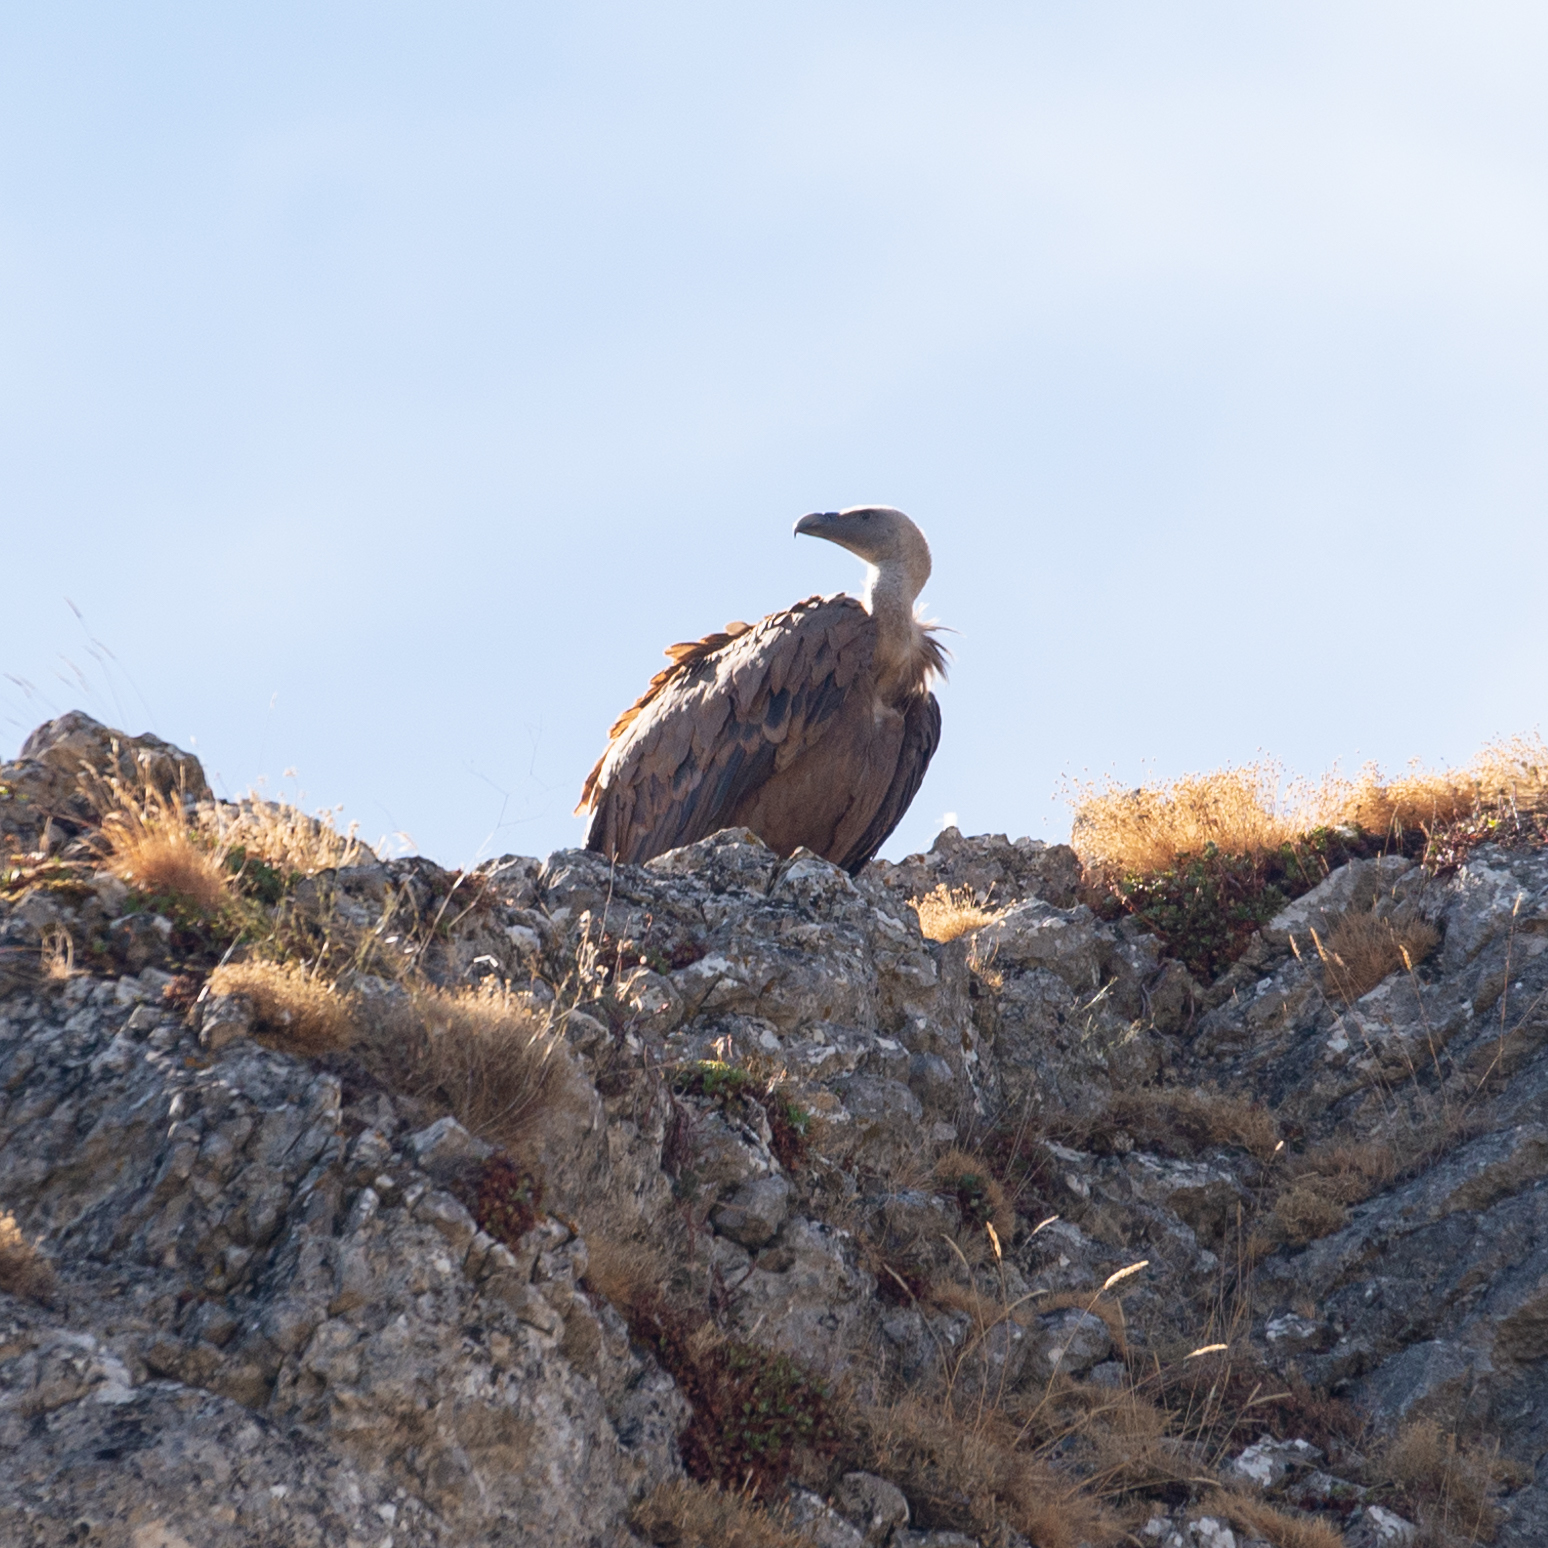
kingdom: Animalia
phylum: Chordata
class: Aves
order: Accipitriformes
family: Accipitridae
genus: Gyps
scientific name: Gyps fulvus
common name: Griffon vulture
